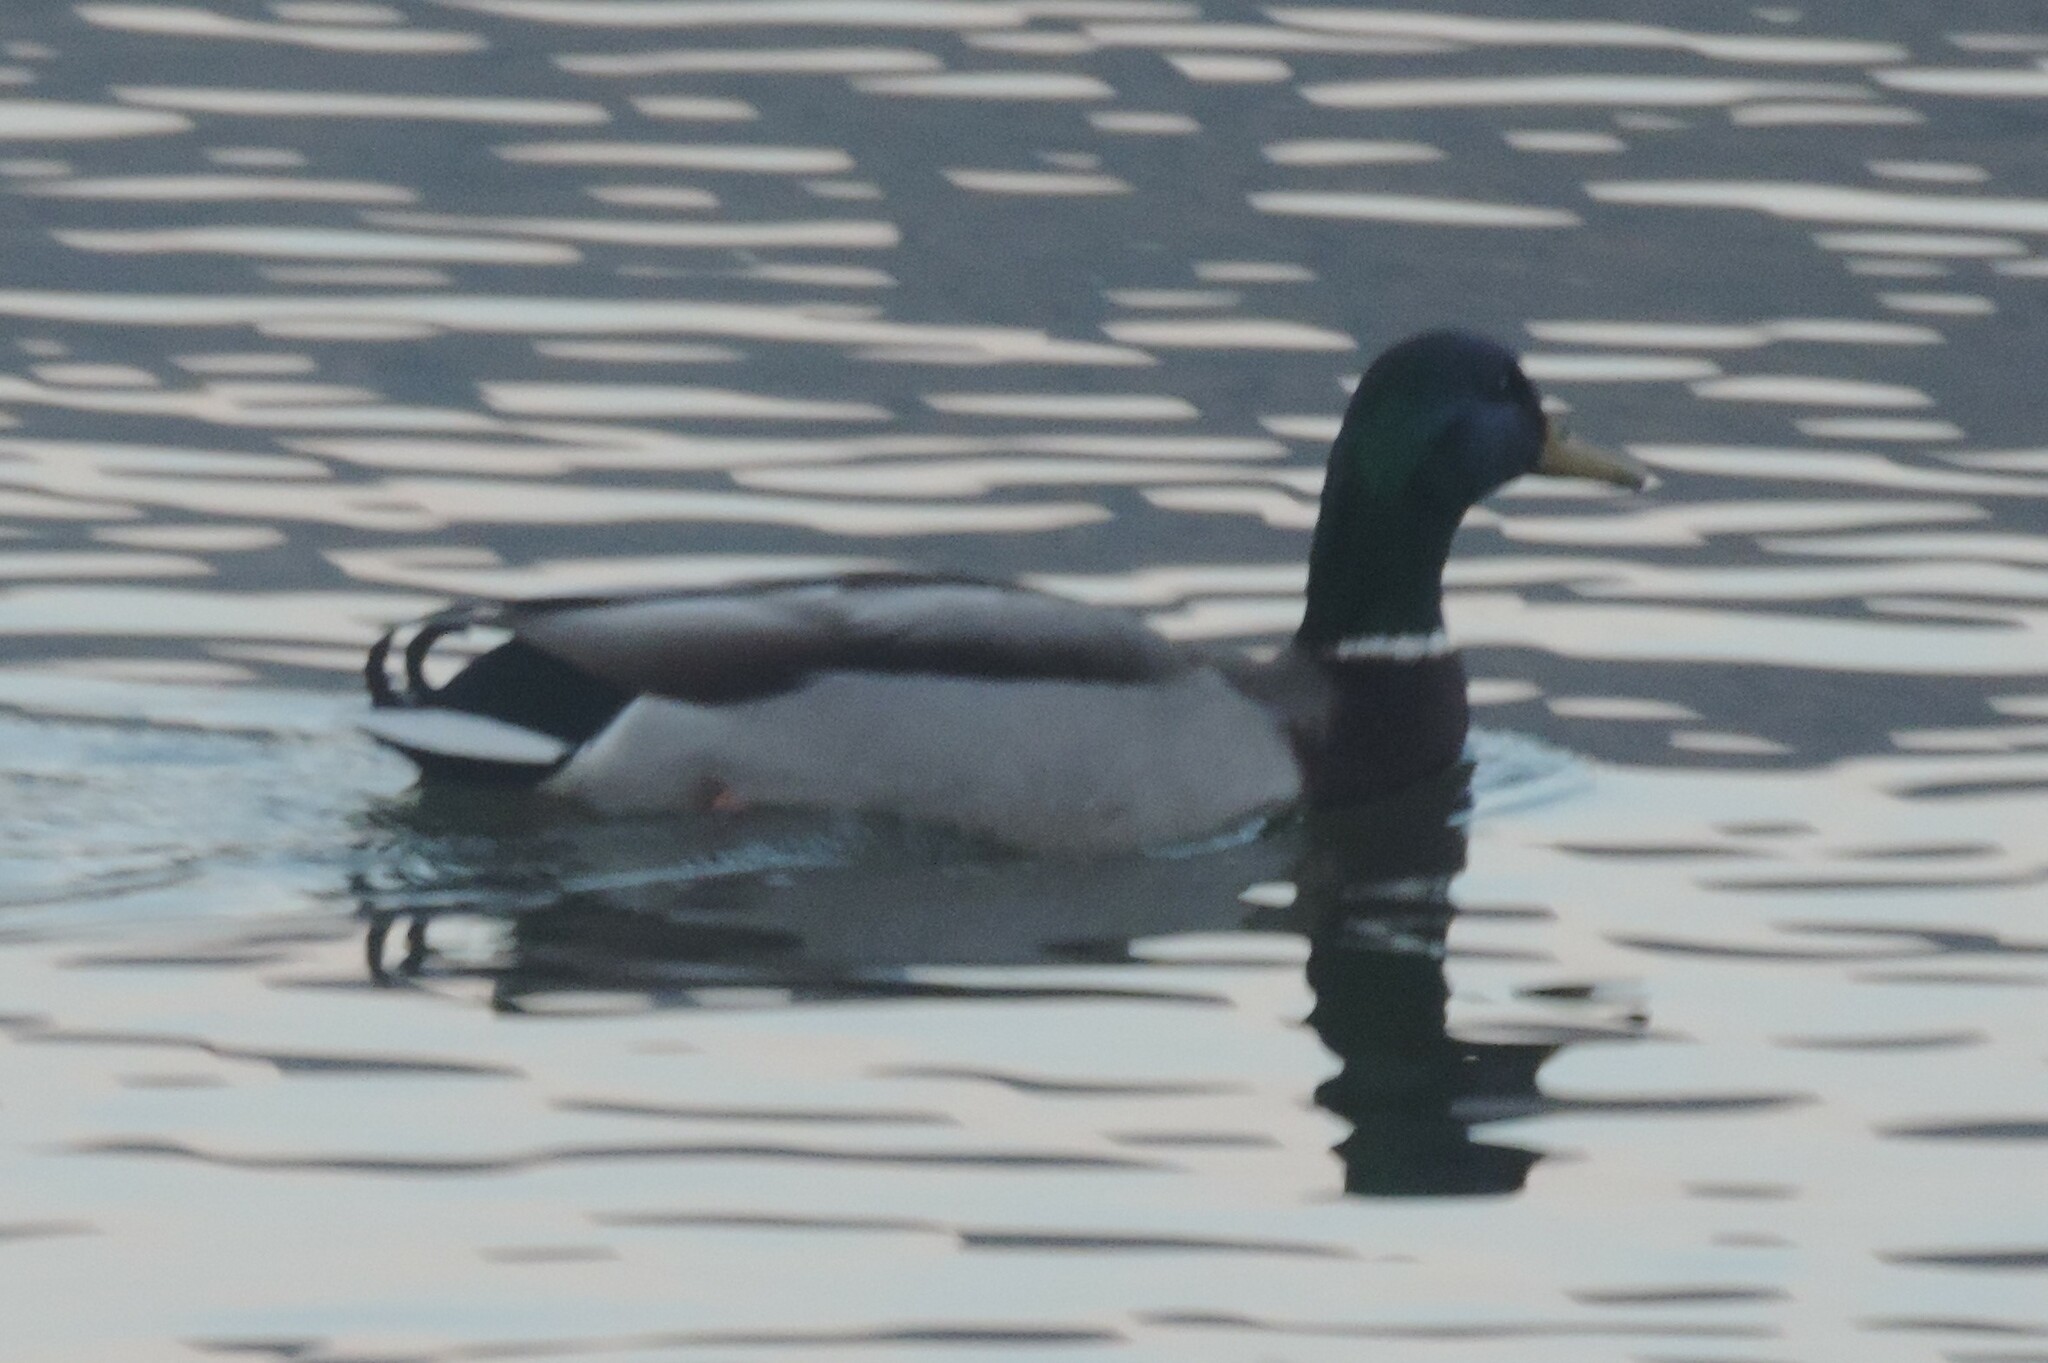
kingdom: Animalia
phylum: Chordata
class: Aves
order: Anseriformes
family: Anatidae
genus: Anas
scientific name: Anas platyrhynchos
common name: Mallard
